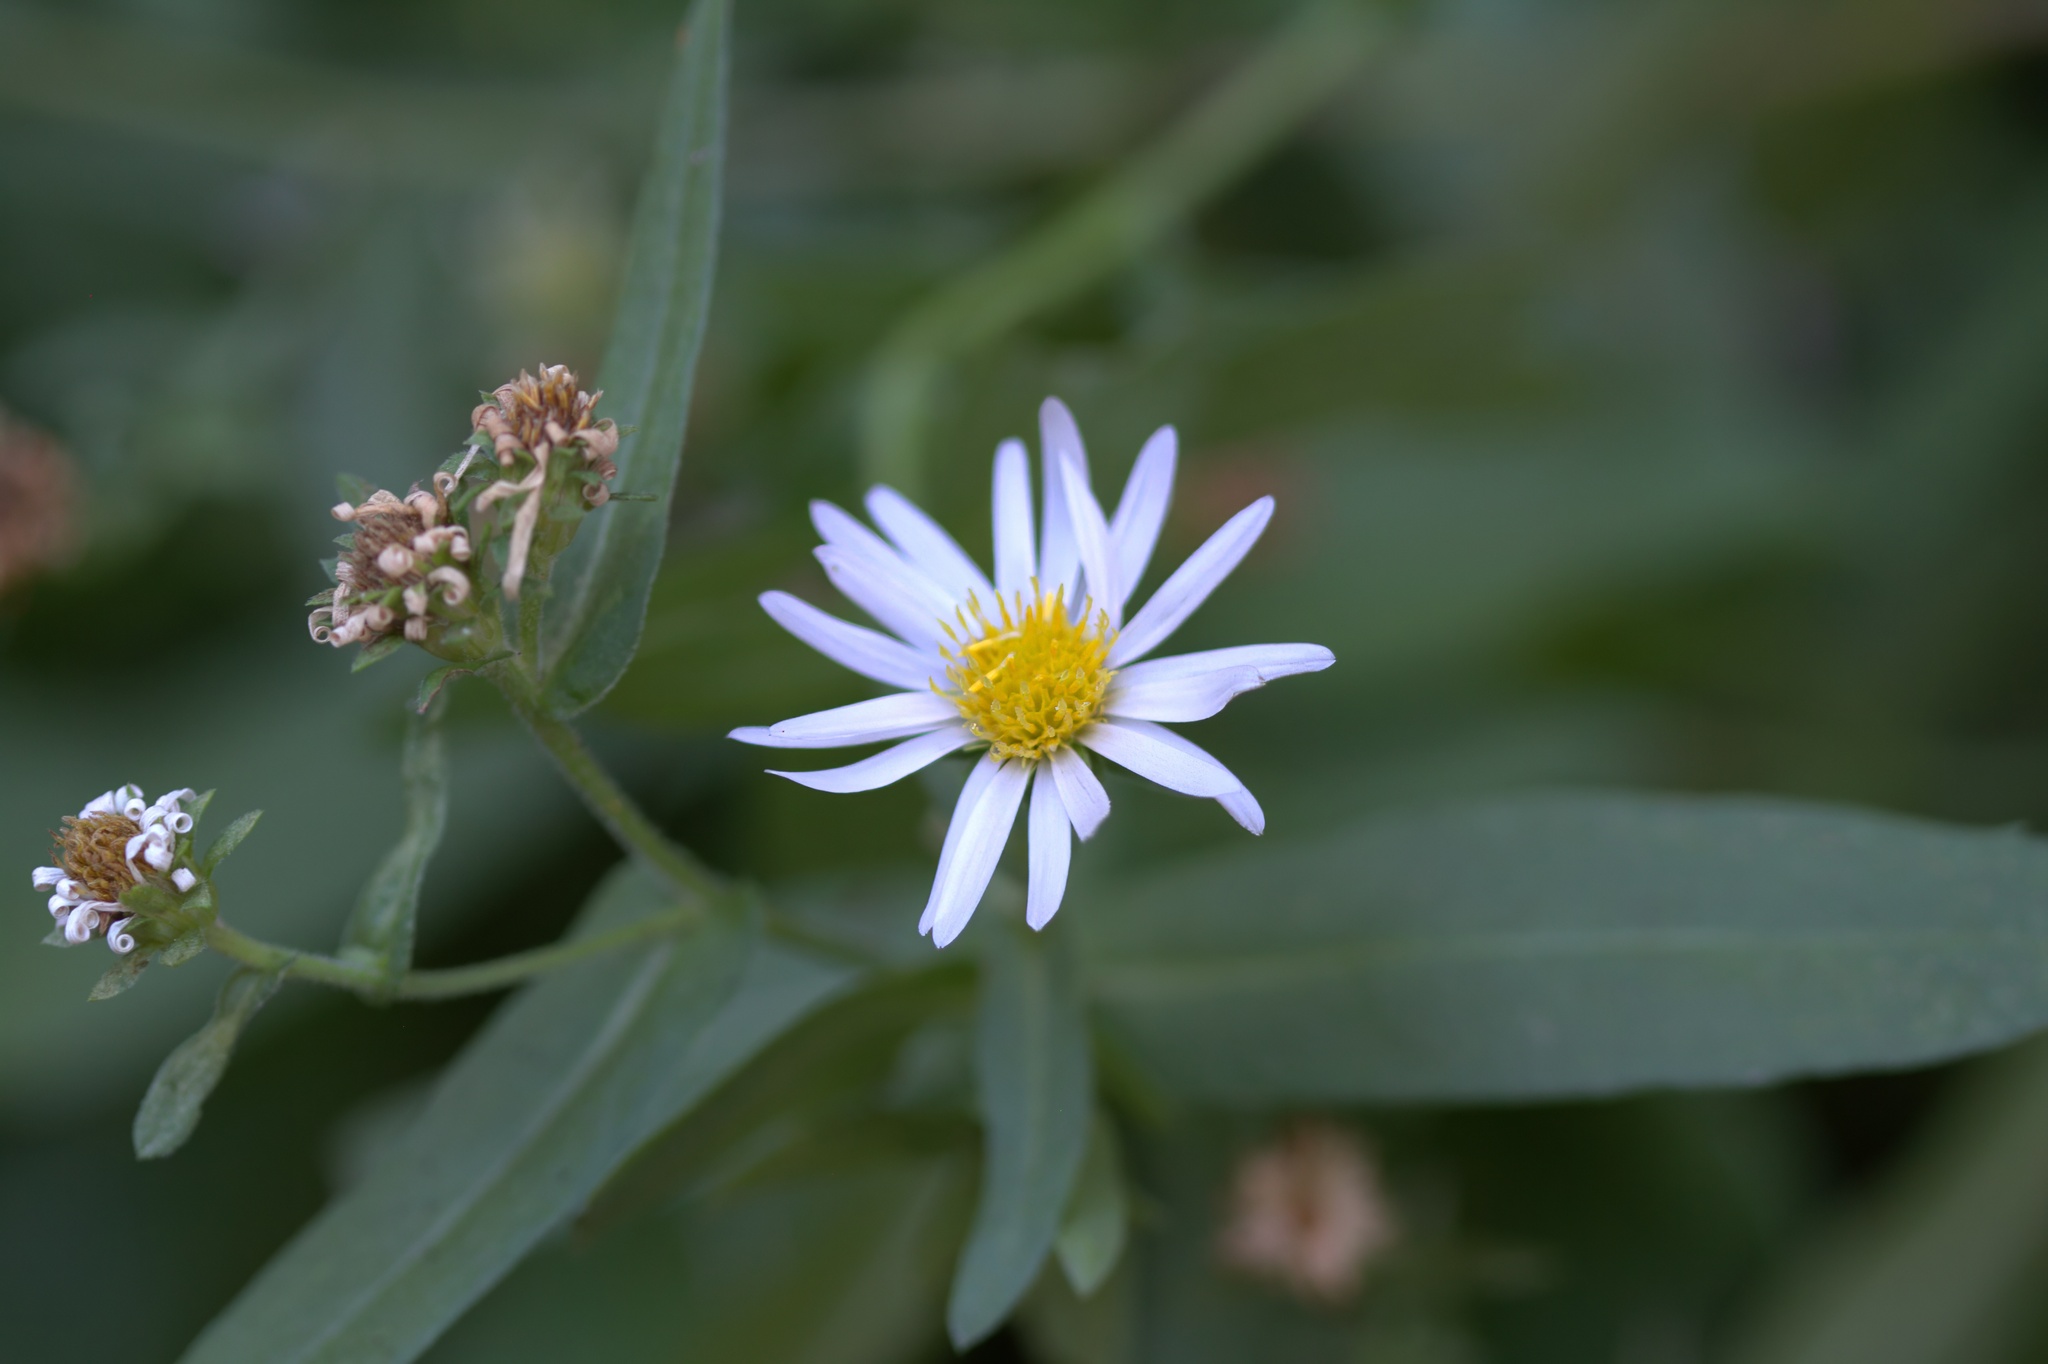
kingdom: Plantae
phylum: Tracheophyta
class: Magnoliopsida
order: Asterales
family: Asteraceae
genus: Symphyotrichum
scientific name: Symphyotrichum greatae
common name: Greata's aster
